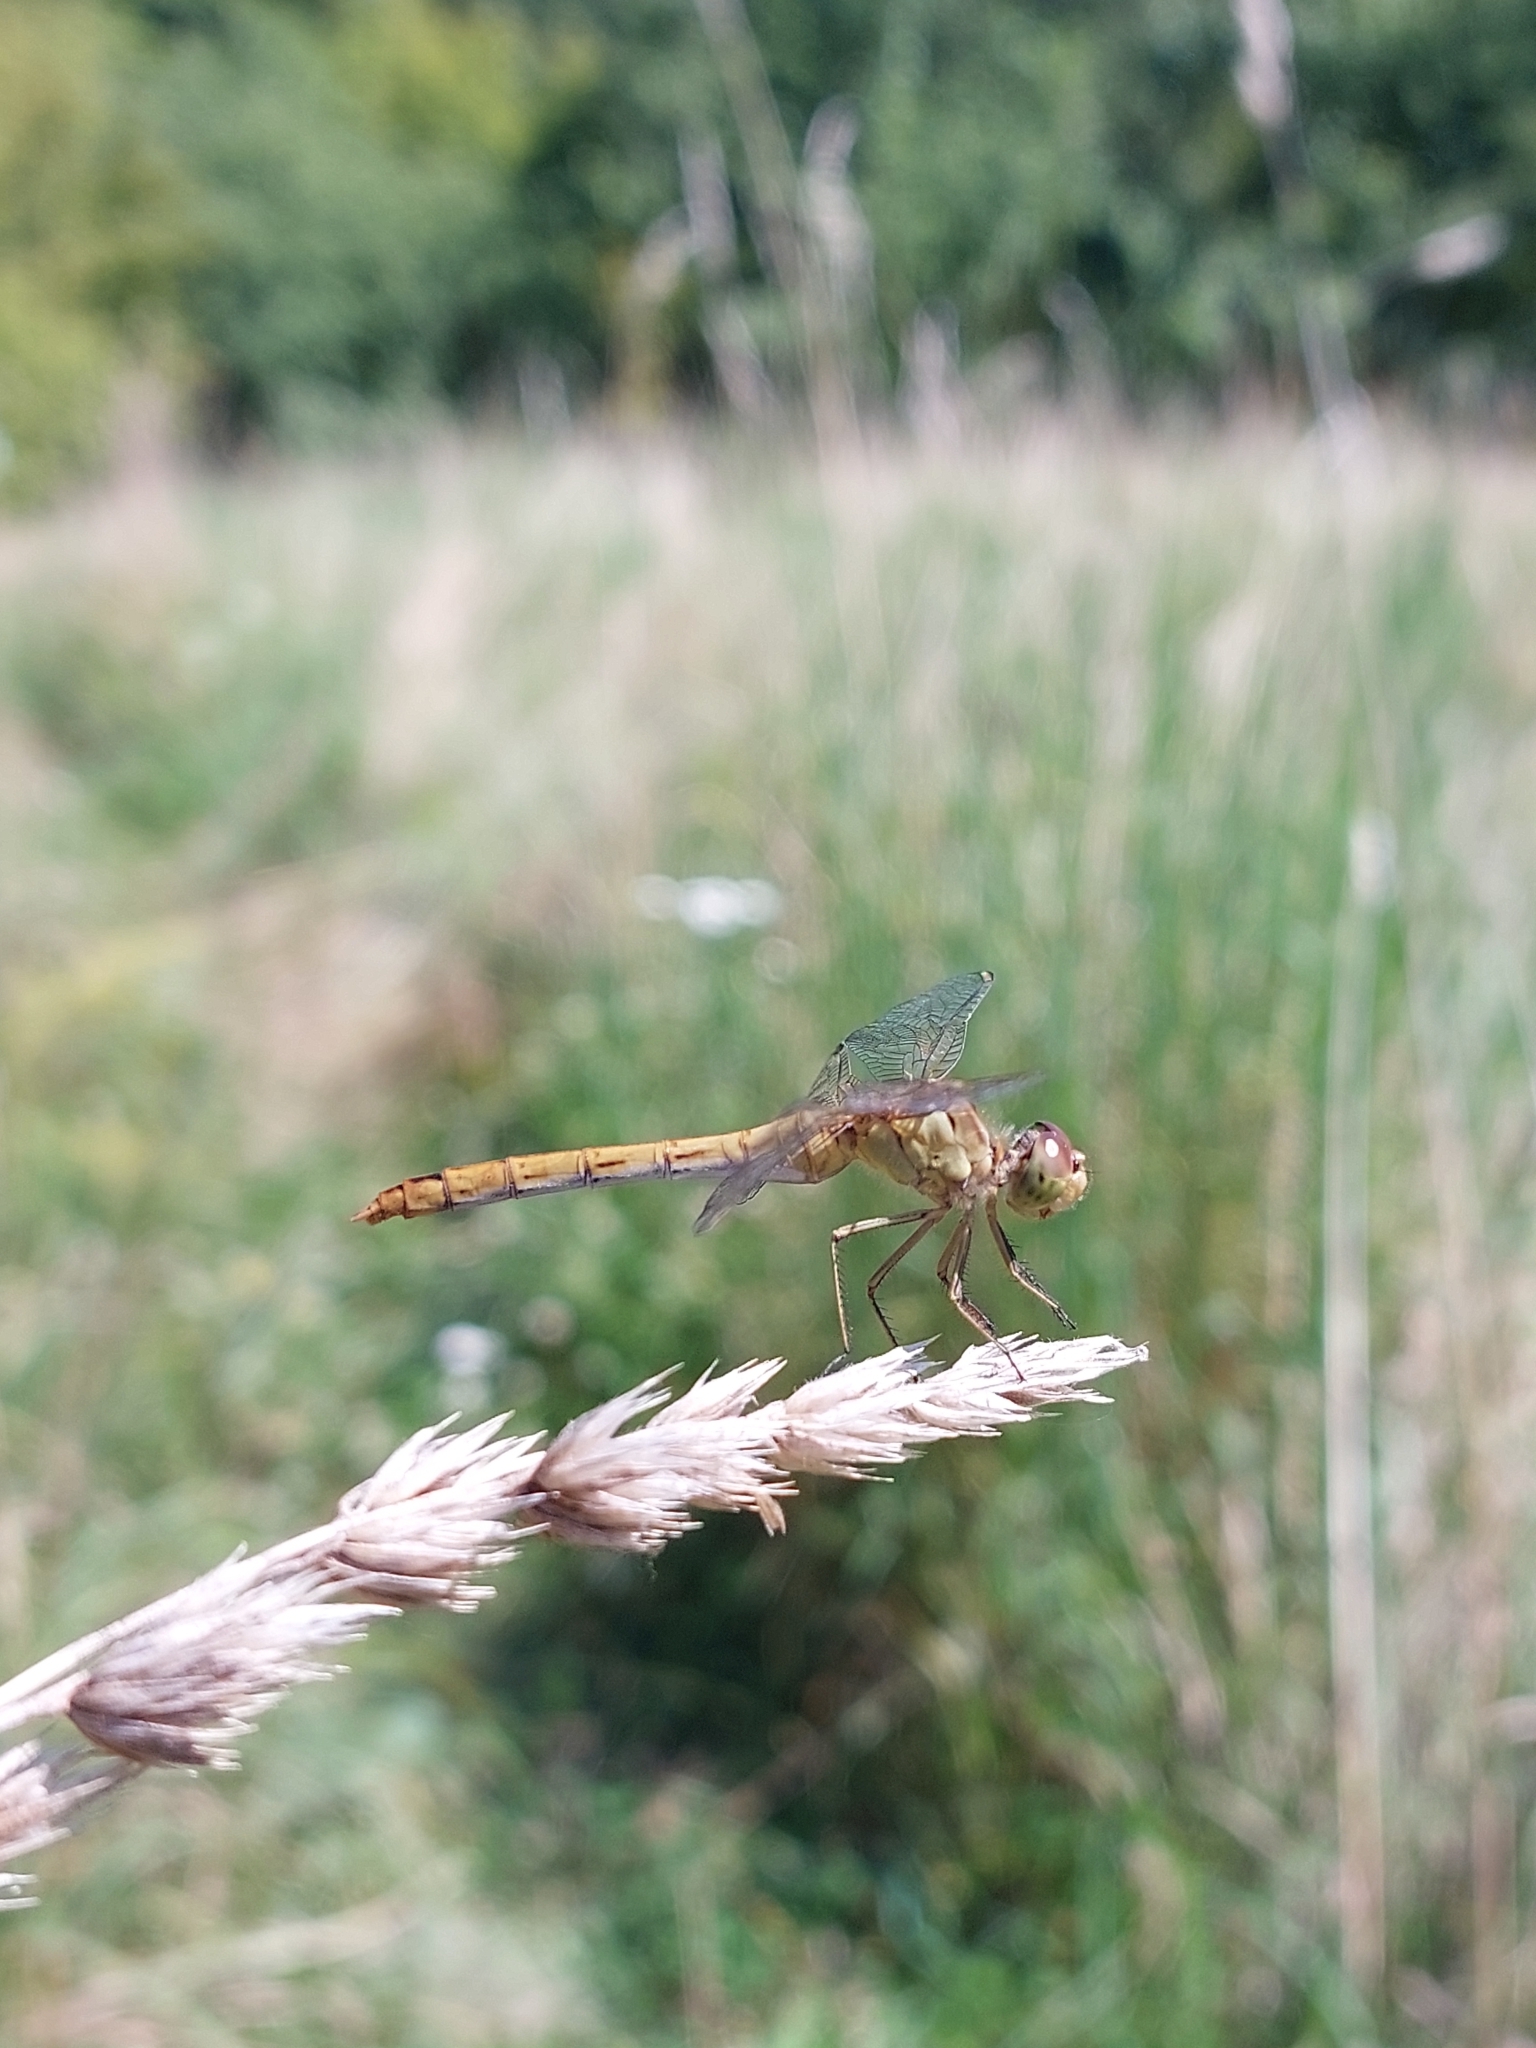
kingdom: Animalia
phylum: Arthropoda
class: Insecta
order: Odonata
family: Libellulidae
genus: Sympetrum
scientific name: Sympetrum meridionale
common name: Southern darter
